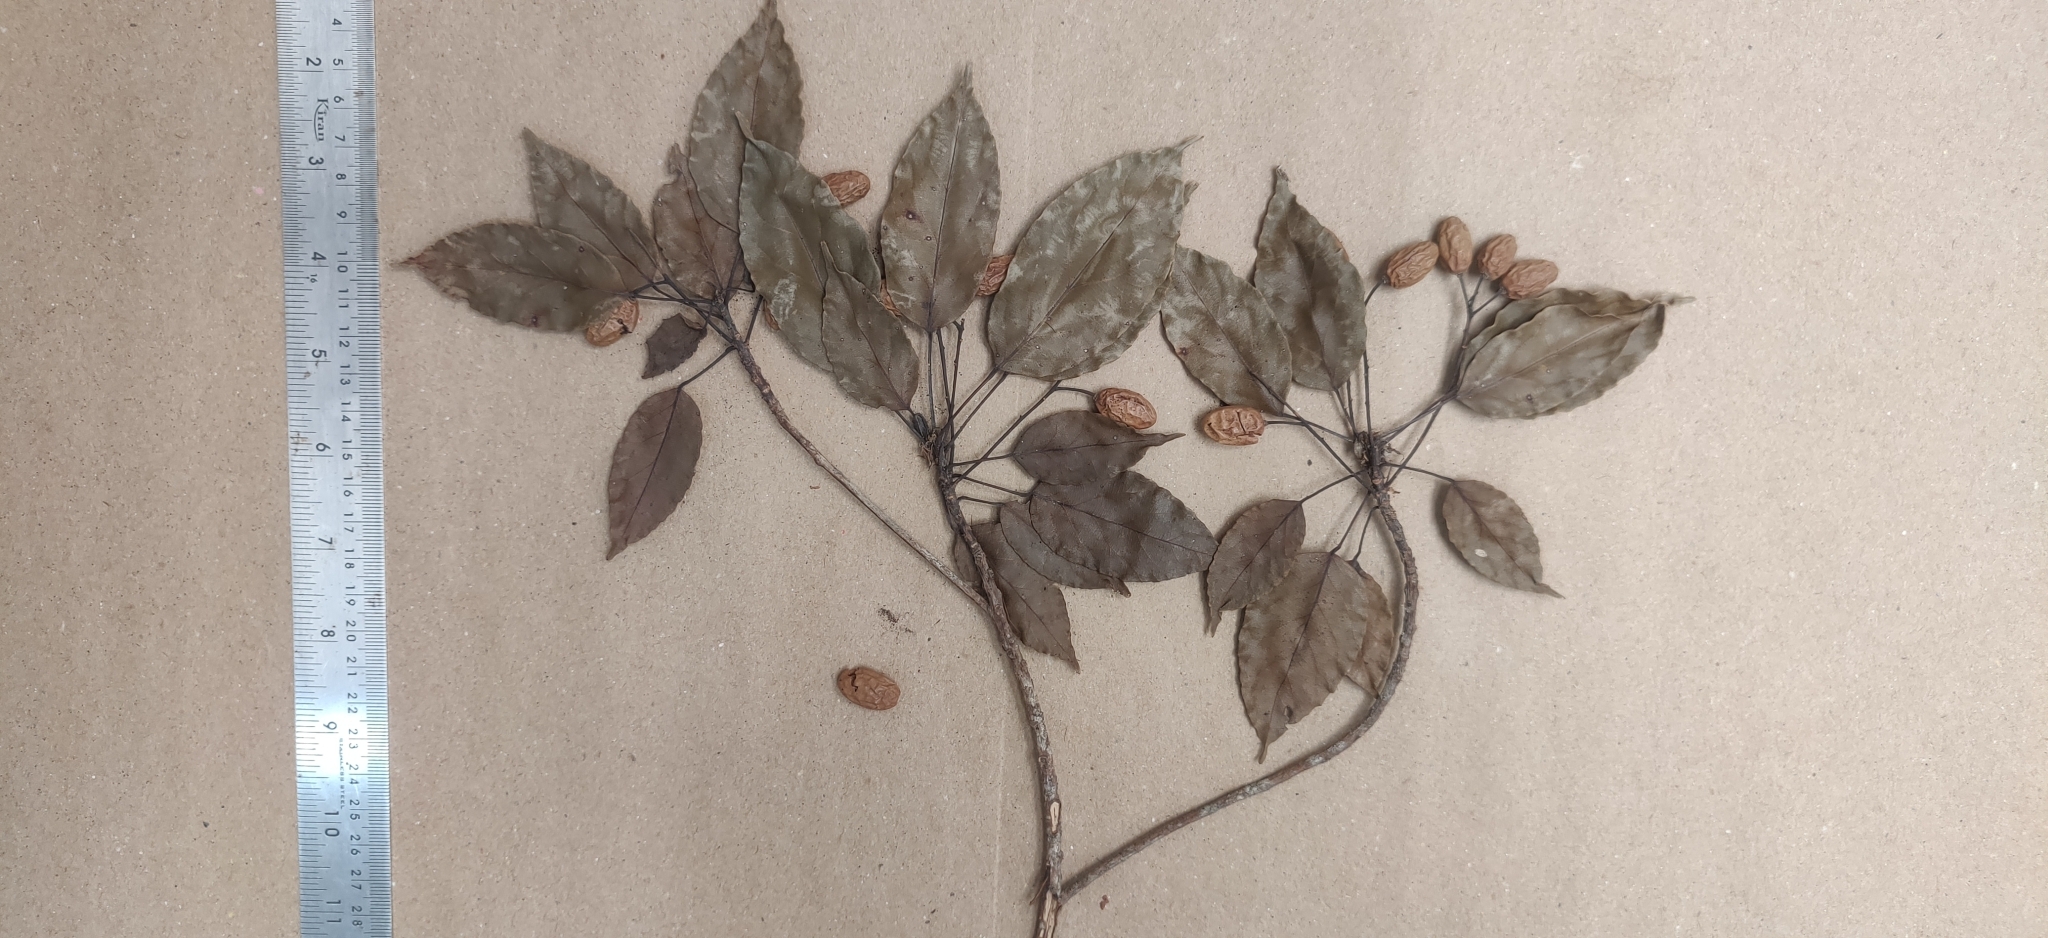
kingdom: Plantae
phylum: Tracheophyta
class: Magnoliopsida
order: Oxalidales
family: Elaeocarpaceae
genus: Elaeocarpus
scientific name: Elaeocarpus munroii
